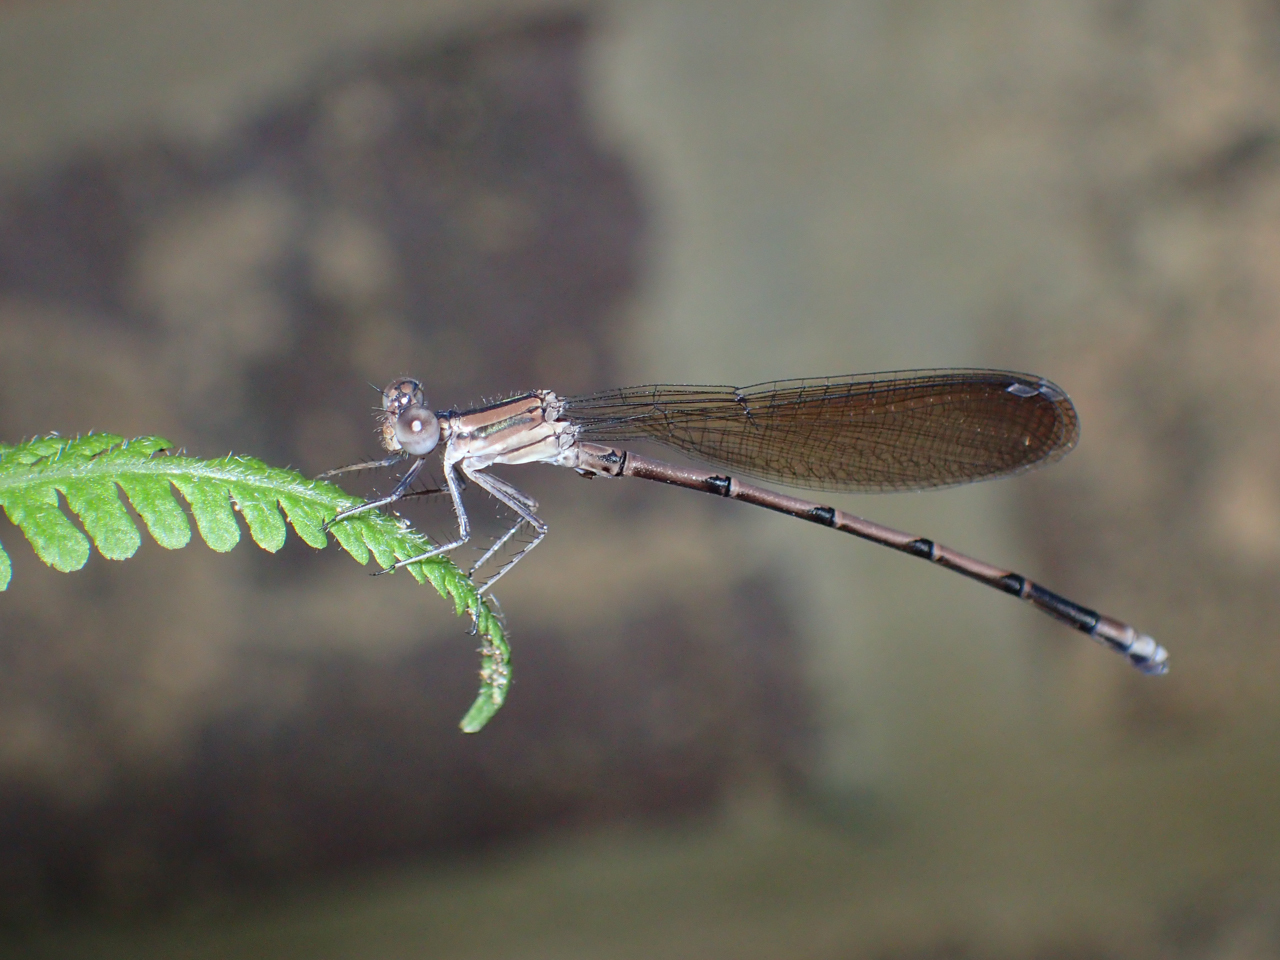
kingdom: Animalia
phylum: Arthropoda
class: Insecta
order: Odonata
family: Coenagrionidae
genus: Argia
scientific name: Argia fumipennis
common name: Variable dancer
